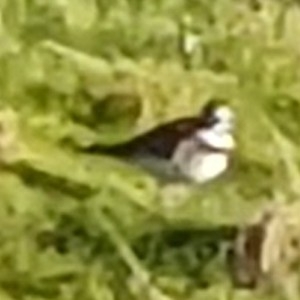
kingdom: Animalia
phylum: Chordata
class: Aves
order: Charadriiformes
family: Charadriidae
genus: Charadrius
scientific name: Charadrius vociferus
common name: Killdeer
